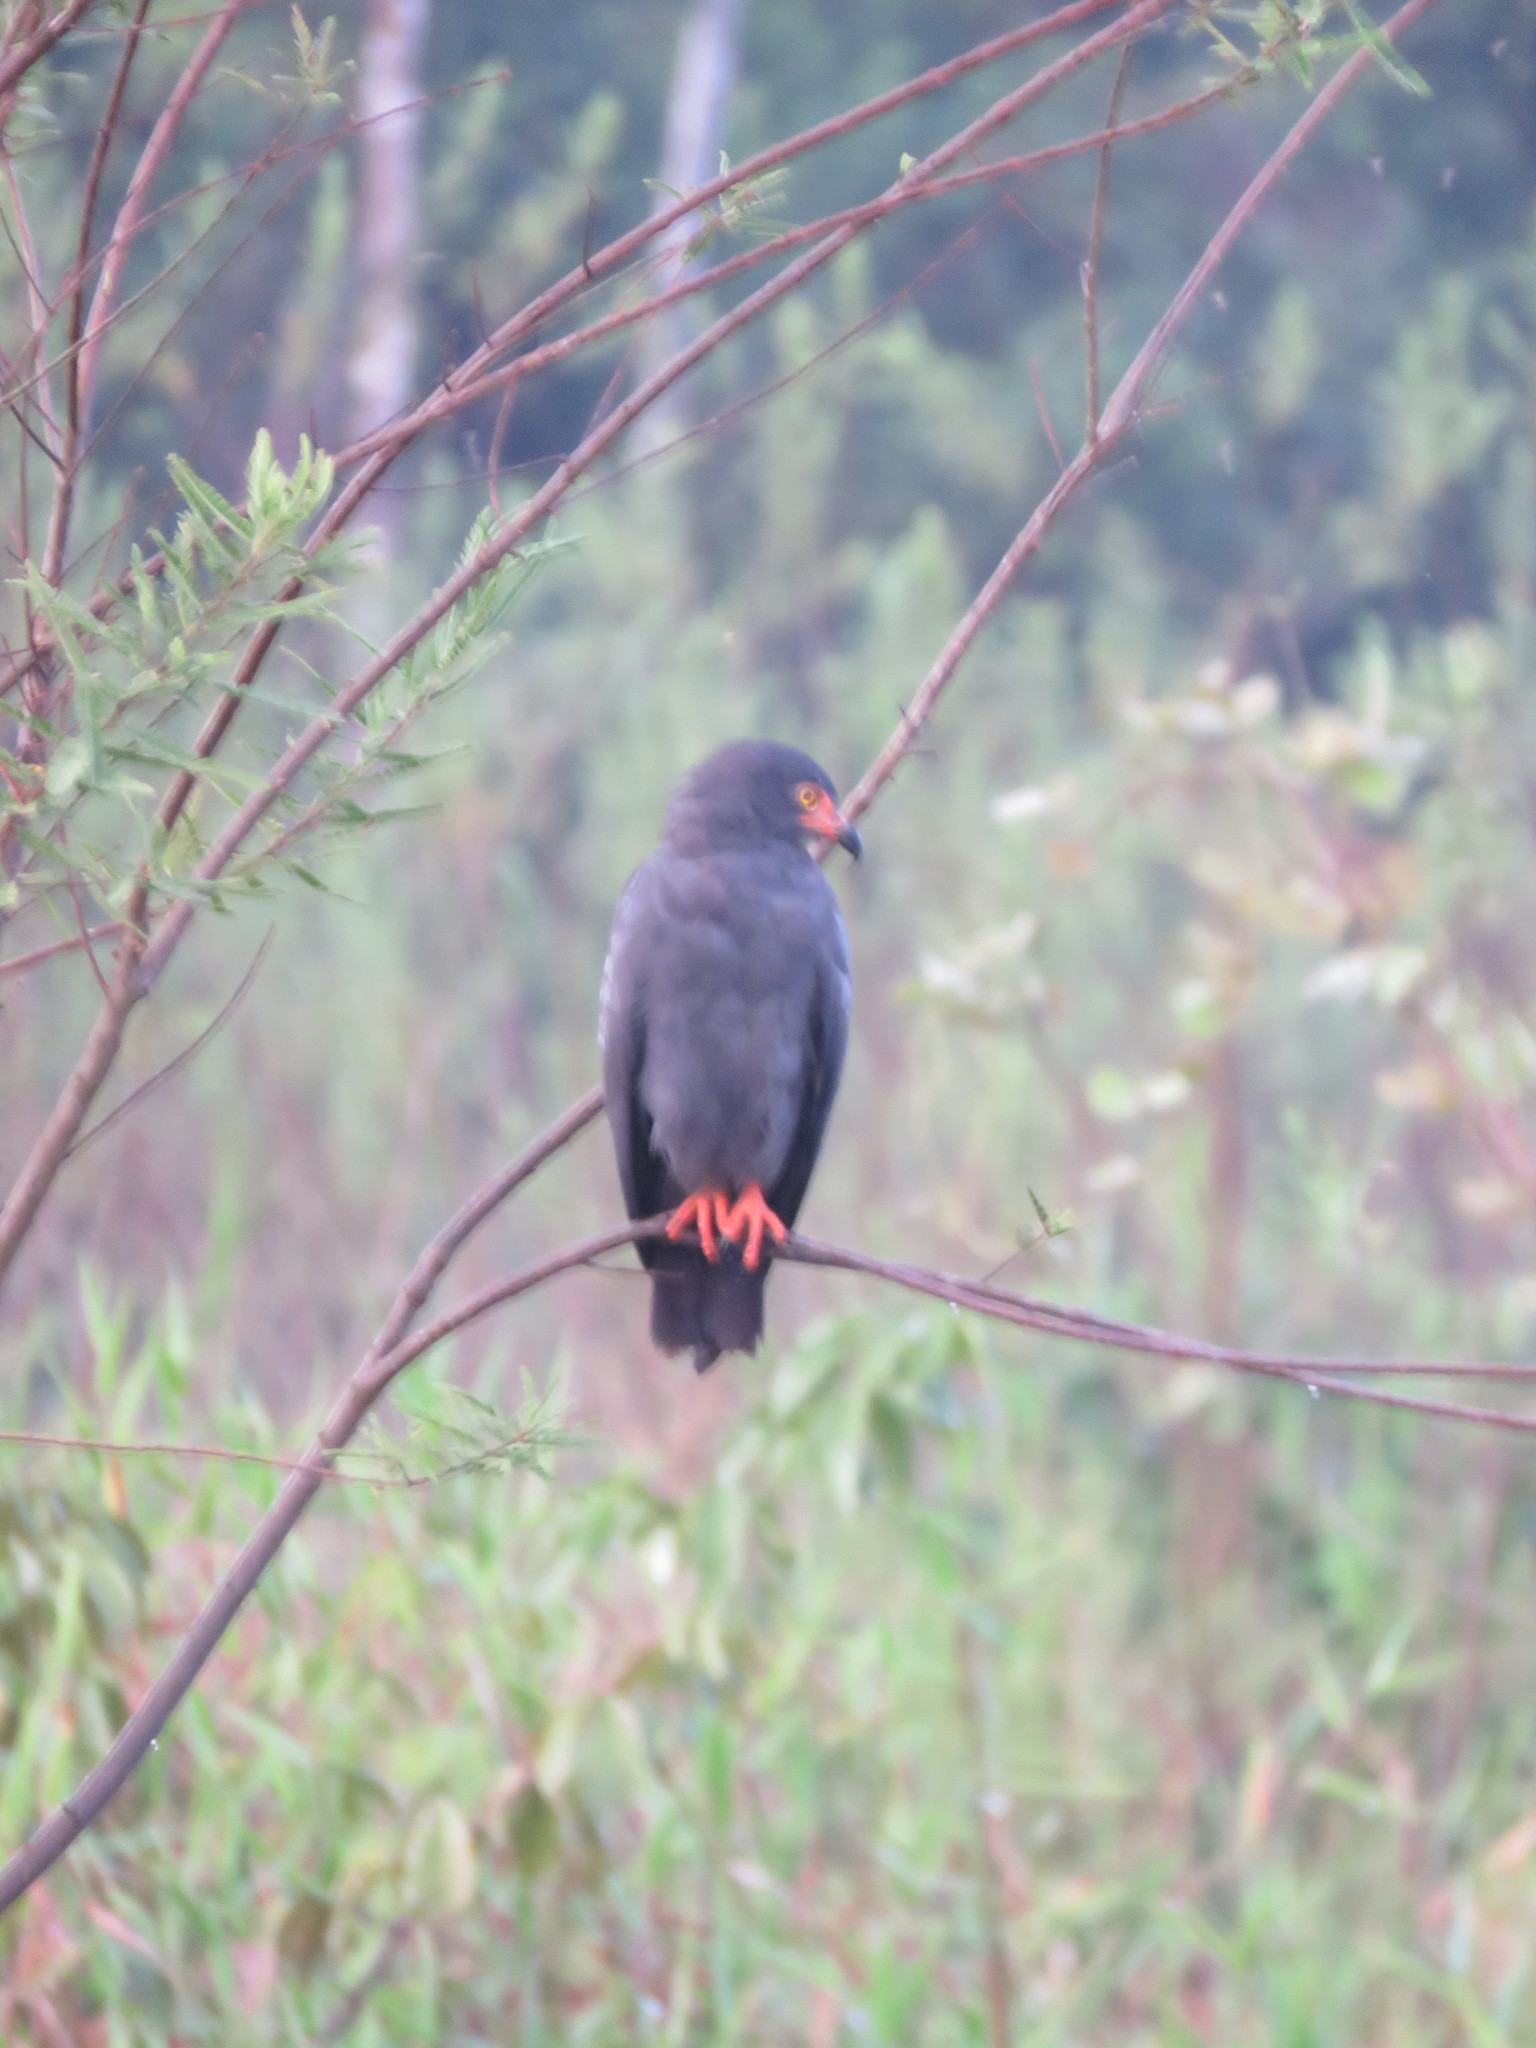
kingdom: Animalia
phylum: Chordata
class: Aves
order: Accipitriformes
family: Accipitridae
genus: Helicolestes
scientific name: Helicolestes hamatus
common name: Slender-billed kite
